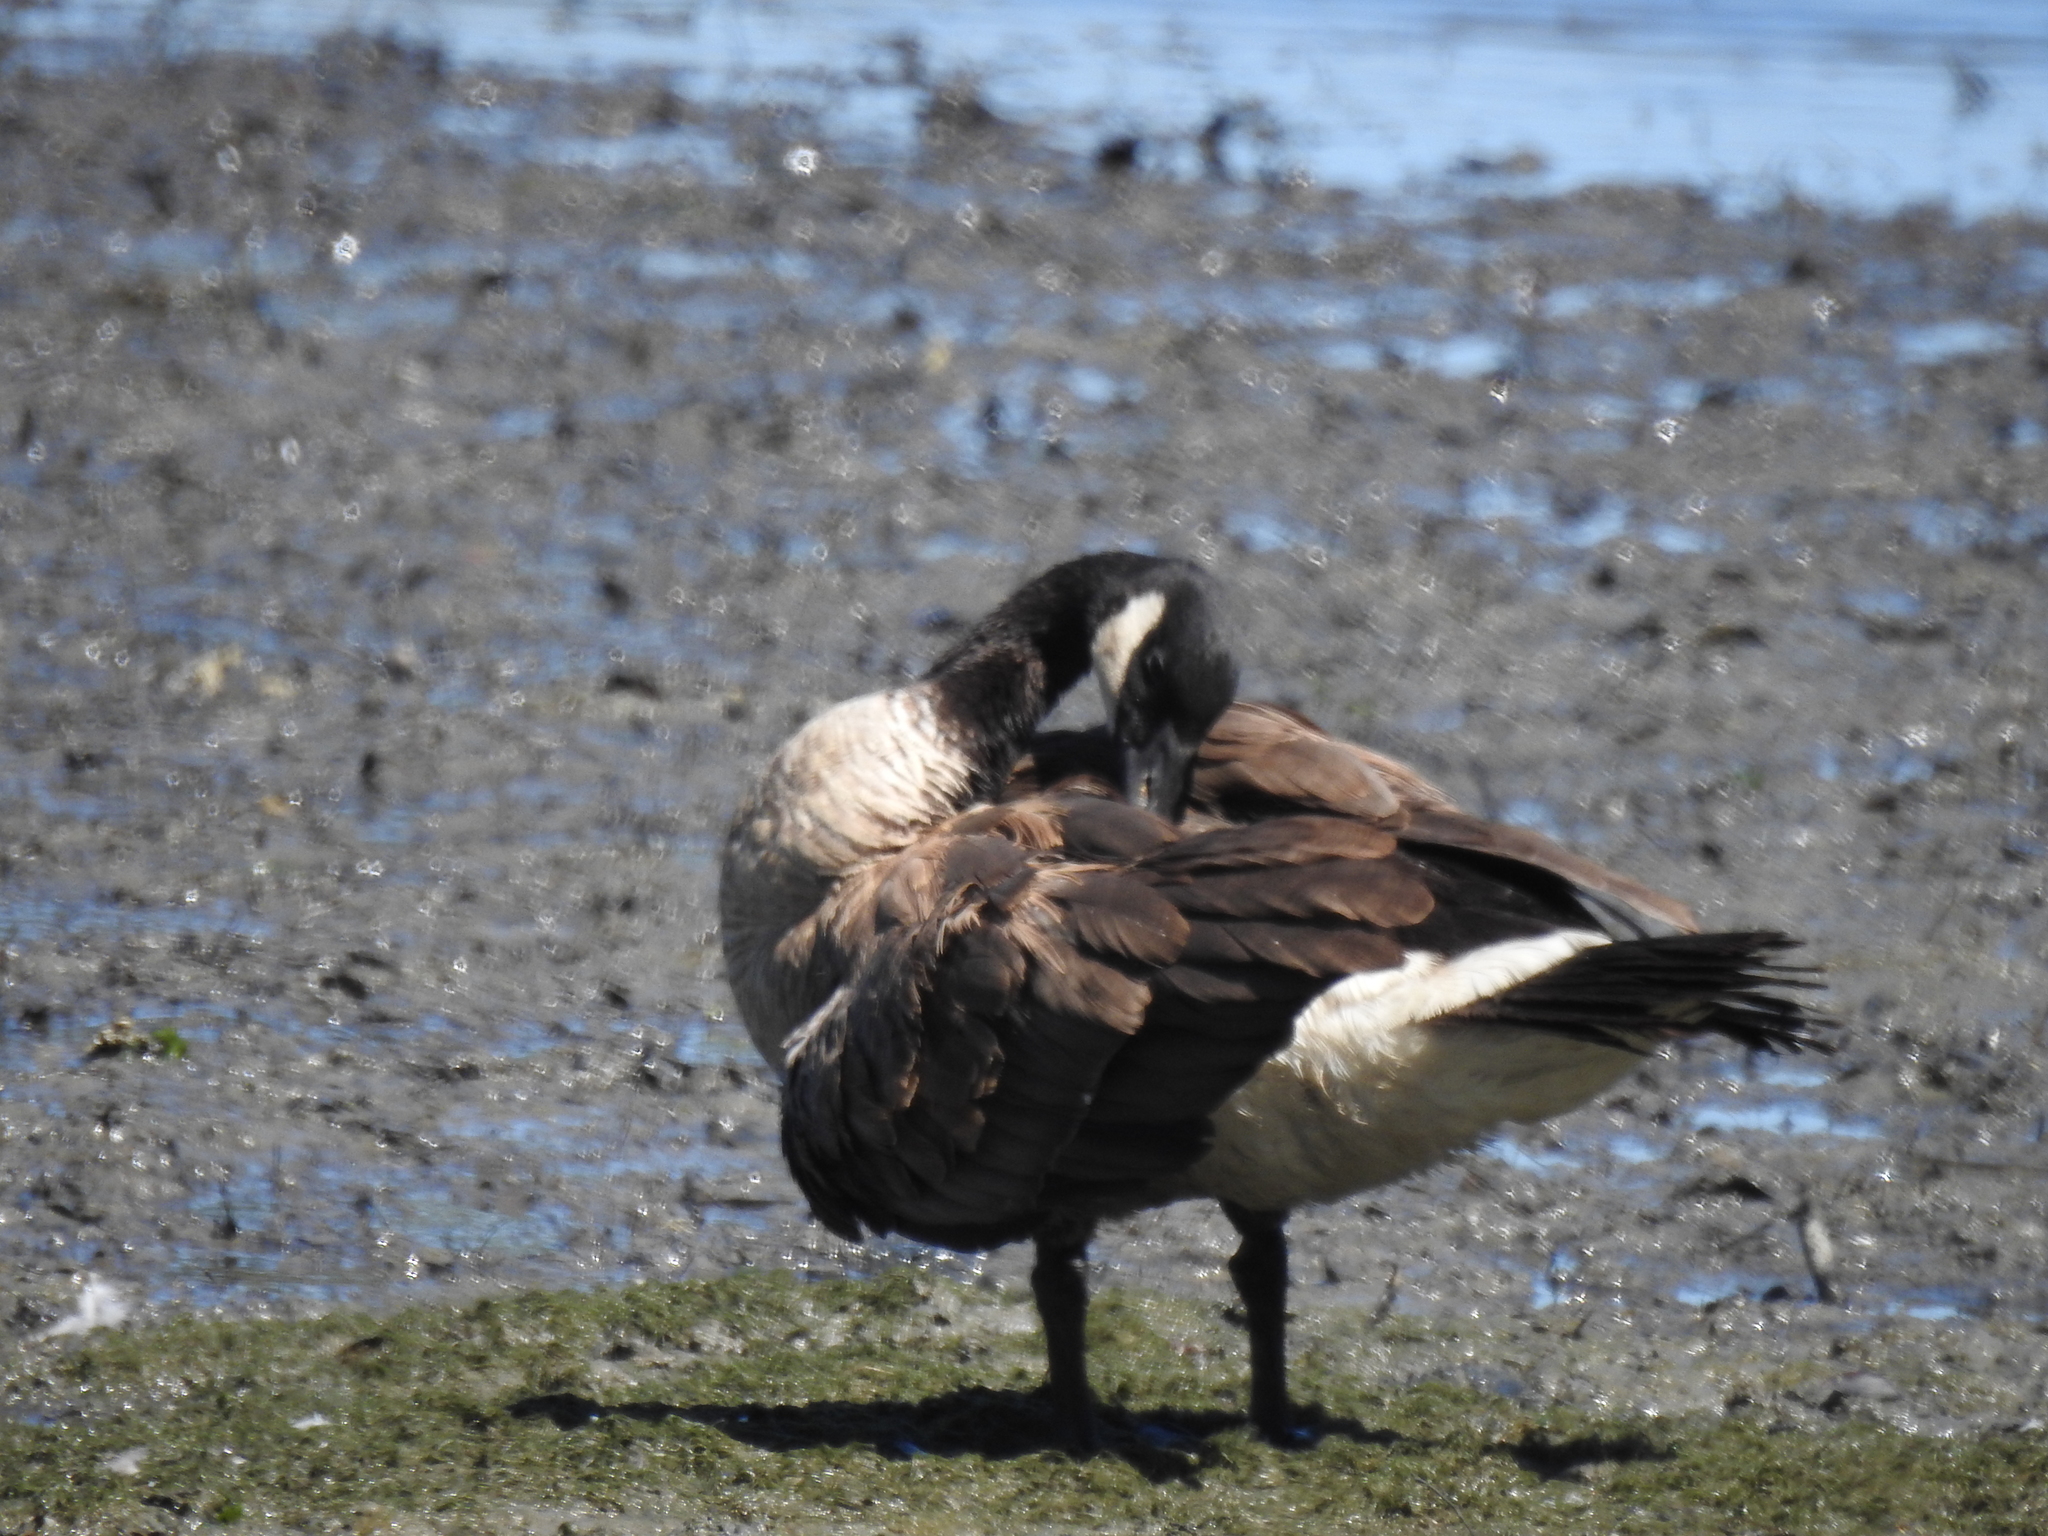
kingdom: Animalia
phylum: Chordata
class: Aves
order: Anseriformes
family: Anatidae
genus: Branta
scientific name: Branta canadensis
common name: Canada goose
